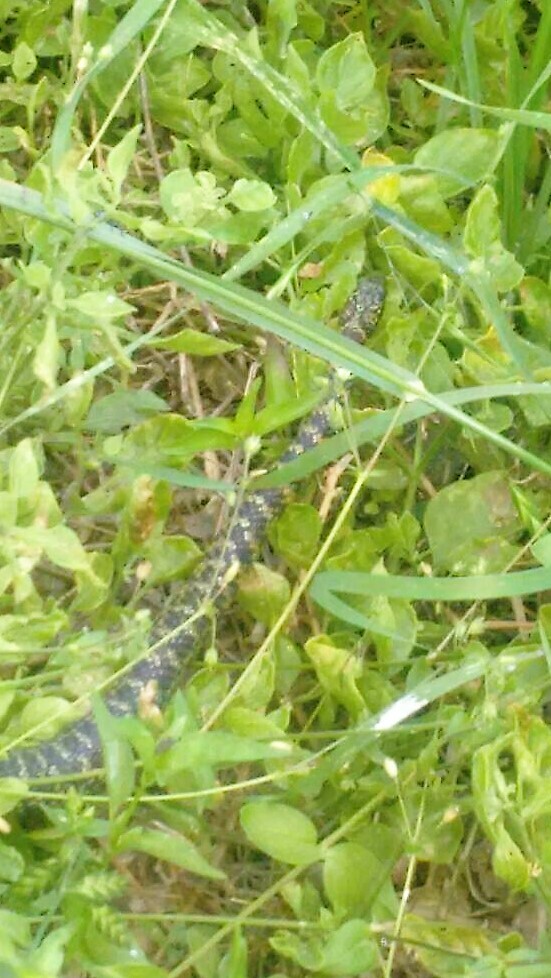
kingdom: Animalia
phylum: Chordata
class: Squamata
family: Colubridae
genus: Erythrolamprus
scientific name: Erythrolamprus poecilogyrus
